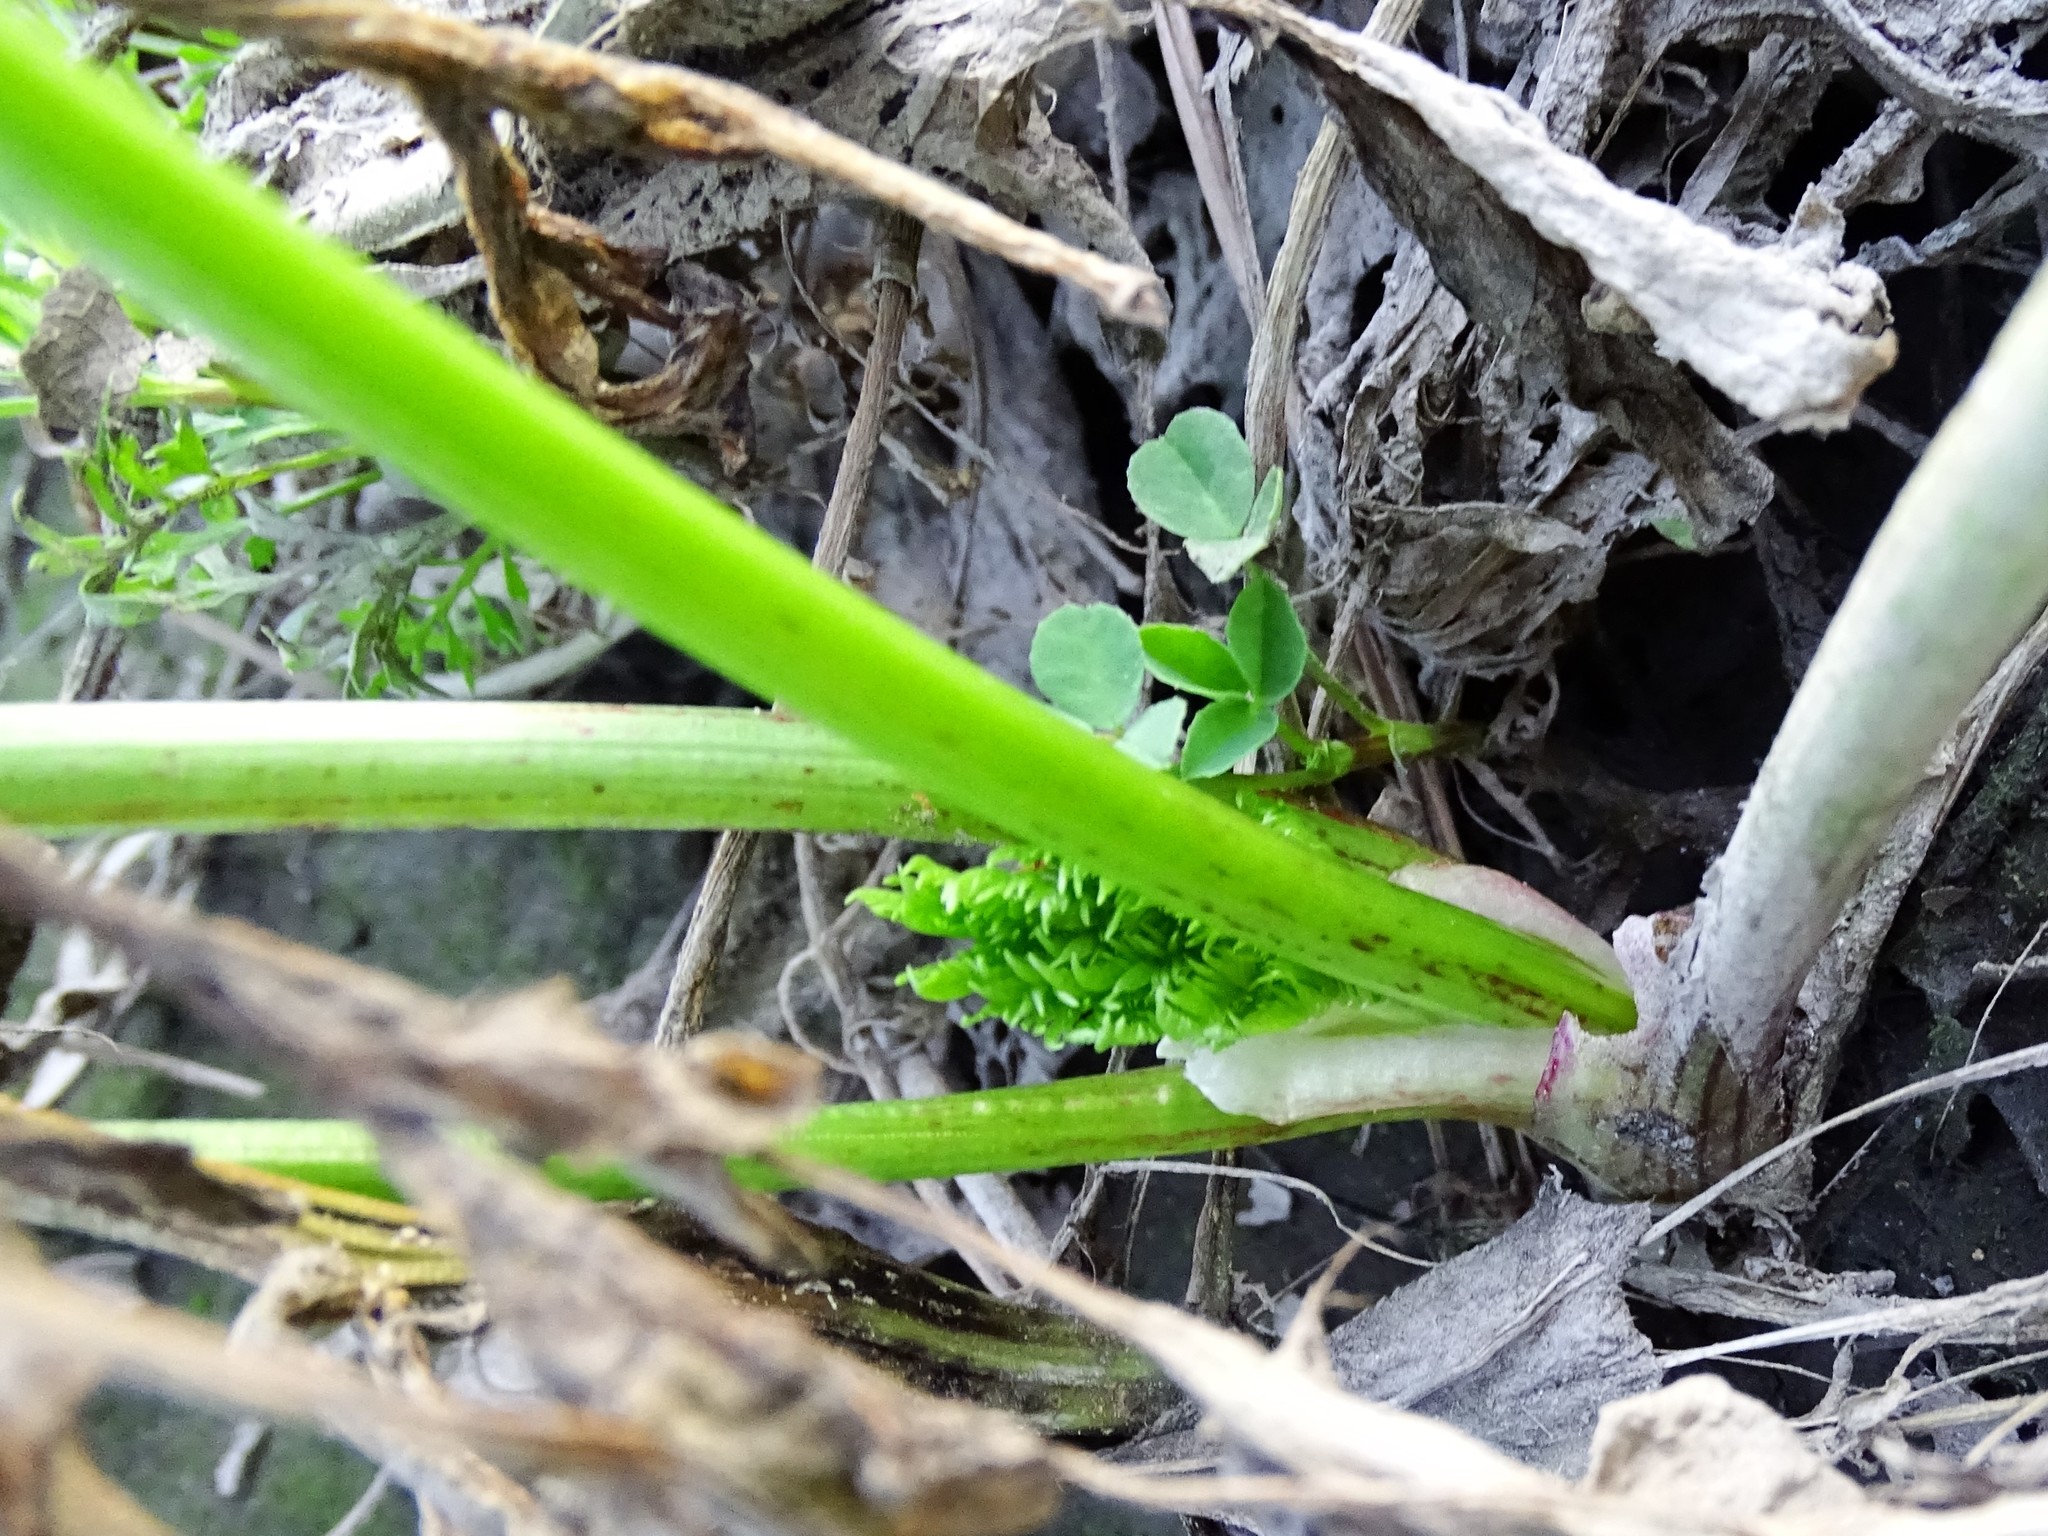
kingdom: Plantae
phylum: Tracheophyta
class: Magnoliopsida
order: Apiales
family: Apiaceae
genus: Conium
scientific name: Conium maculatum
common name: Hemlock
